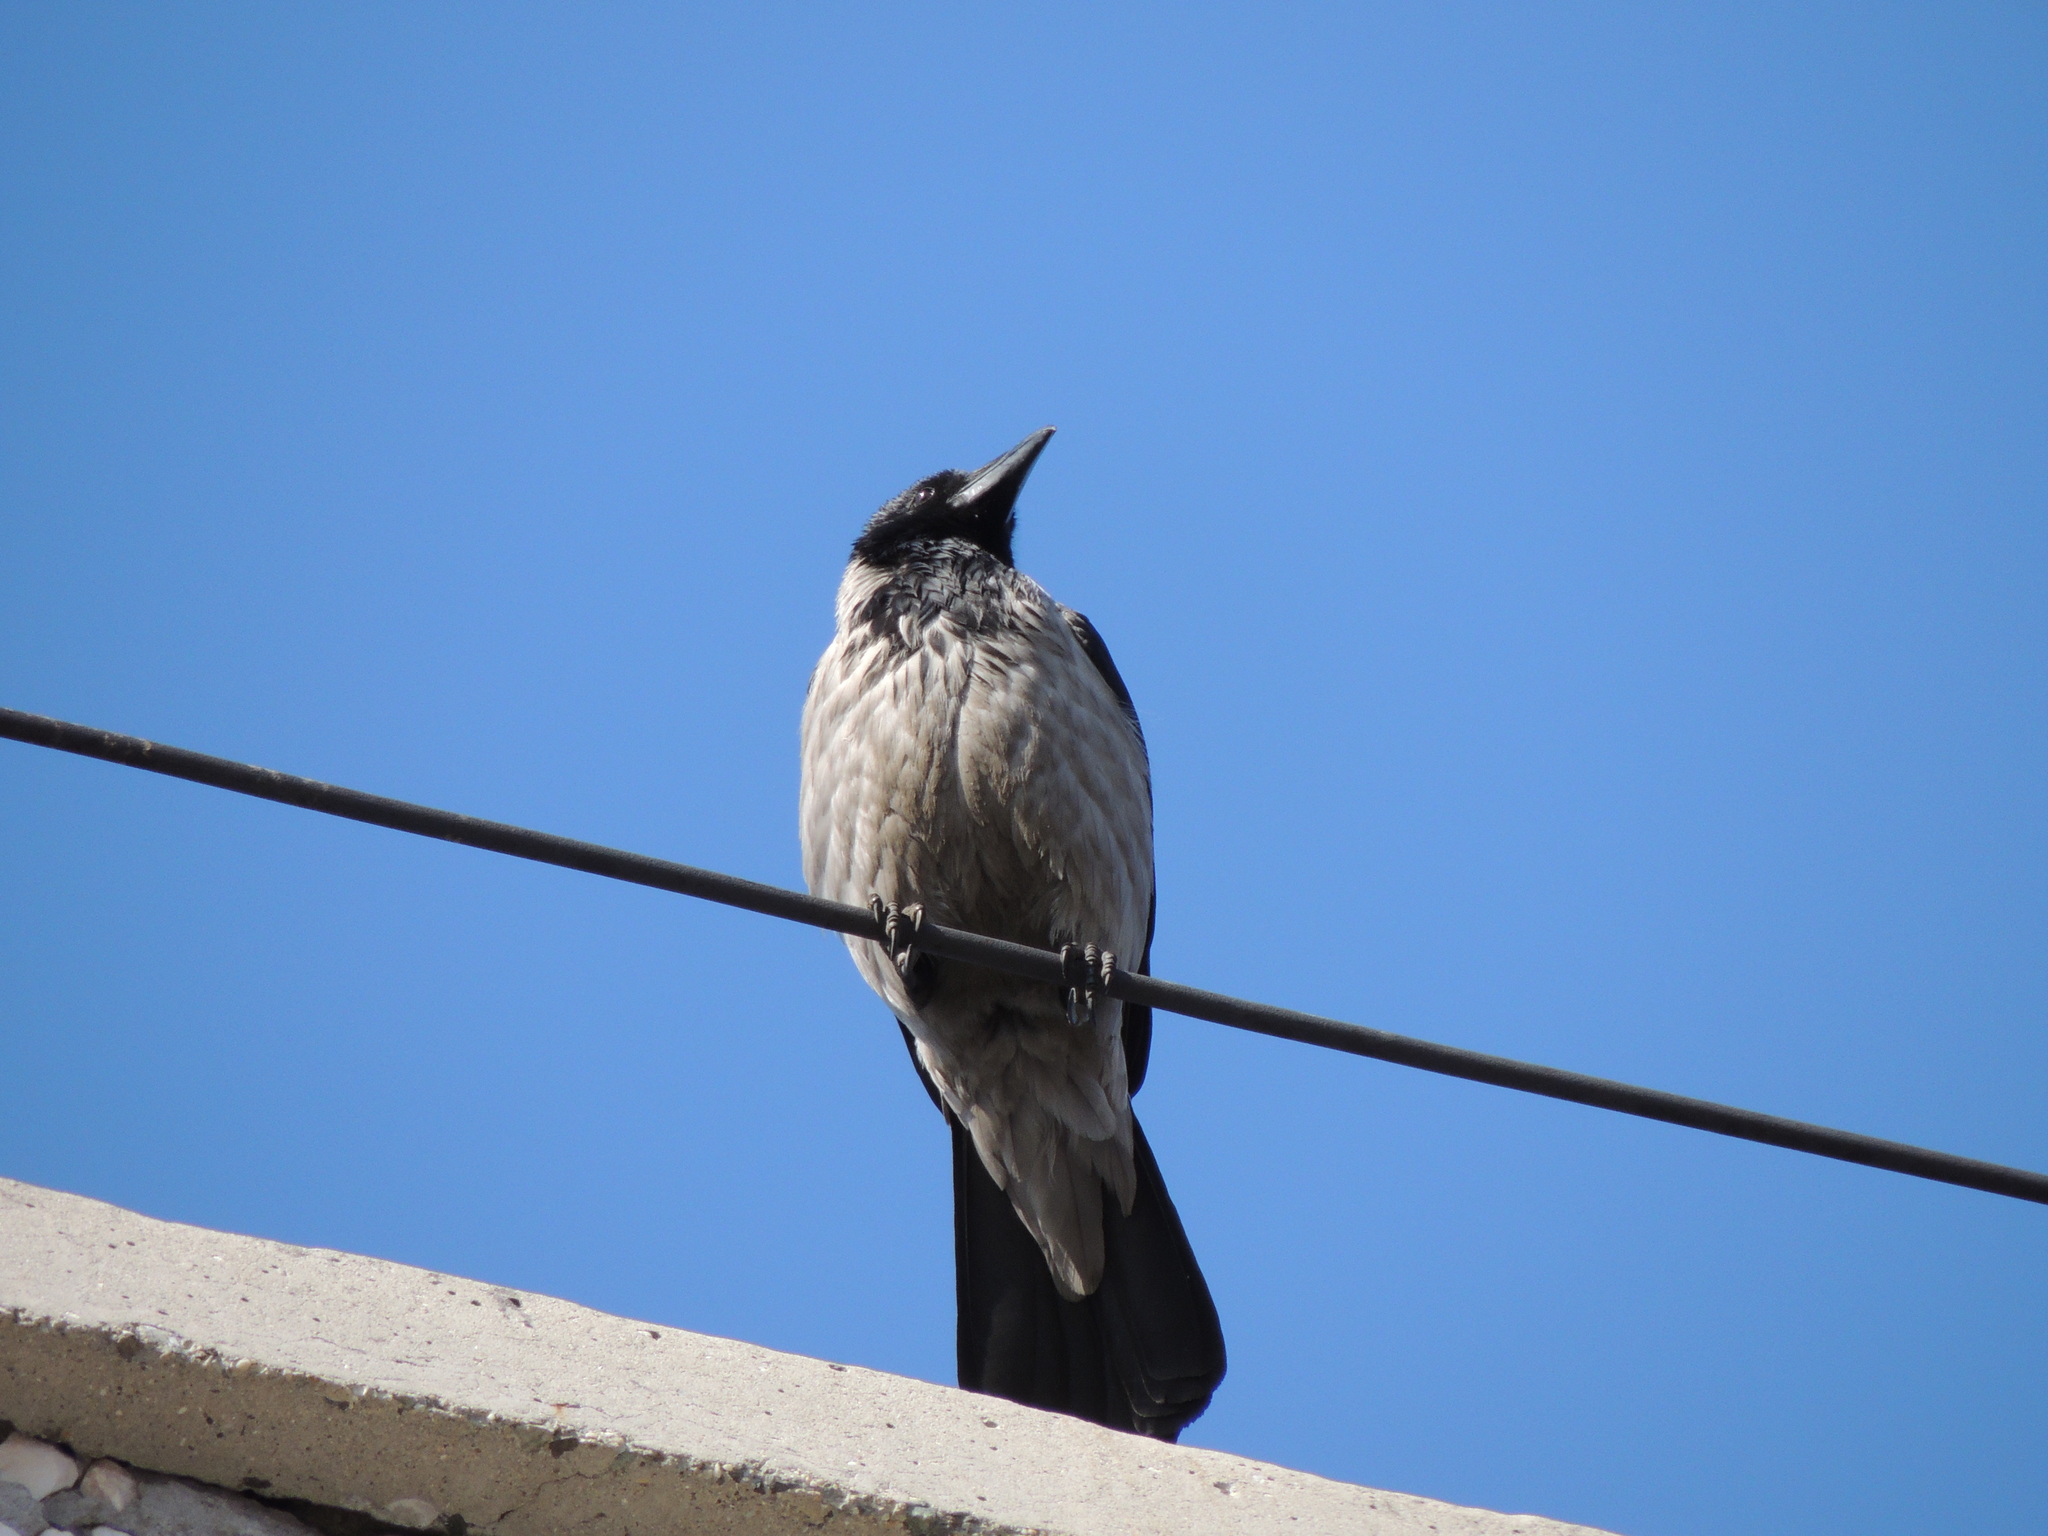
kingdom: Animalia
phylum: Chordata
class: Aves
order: Passeriformes
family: Corvidae
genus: Corvus
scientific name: Corvus cornix
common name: Hooded crow
